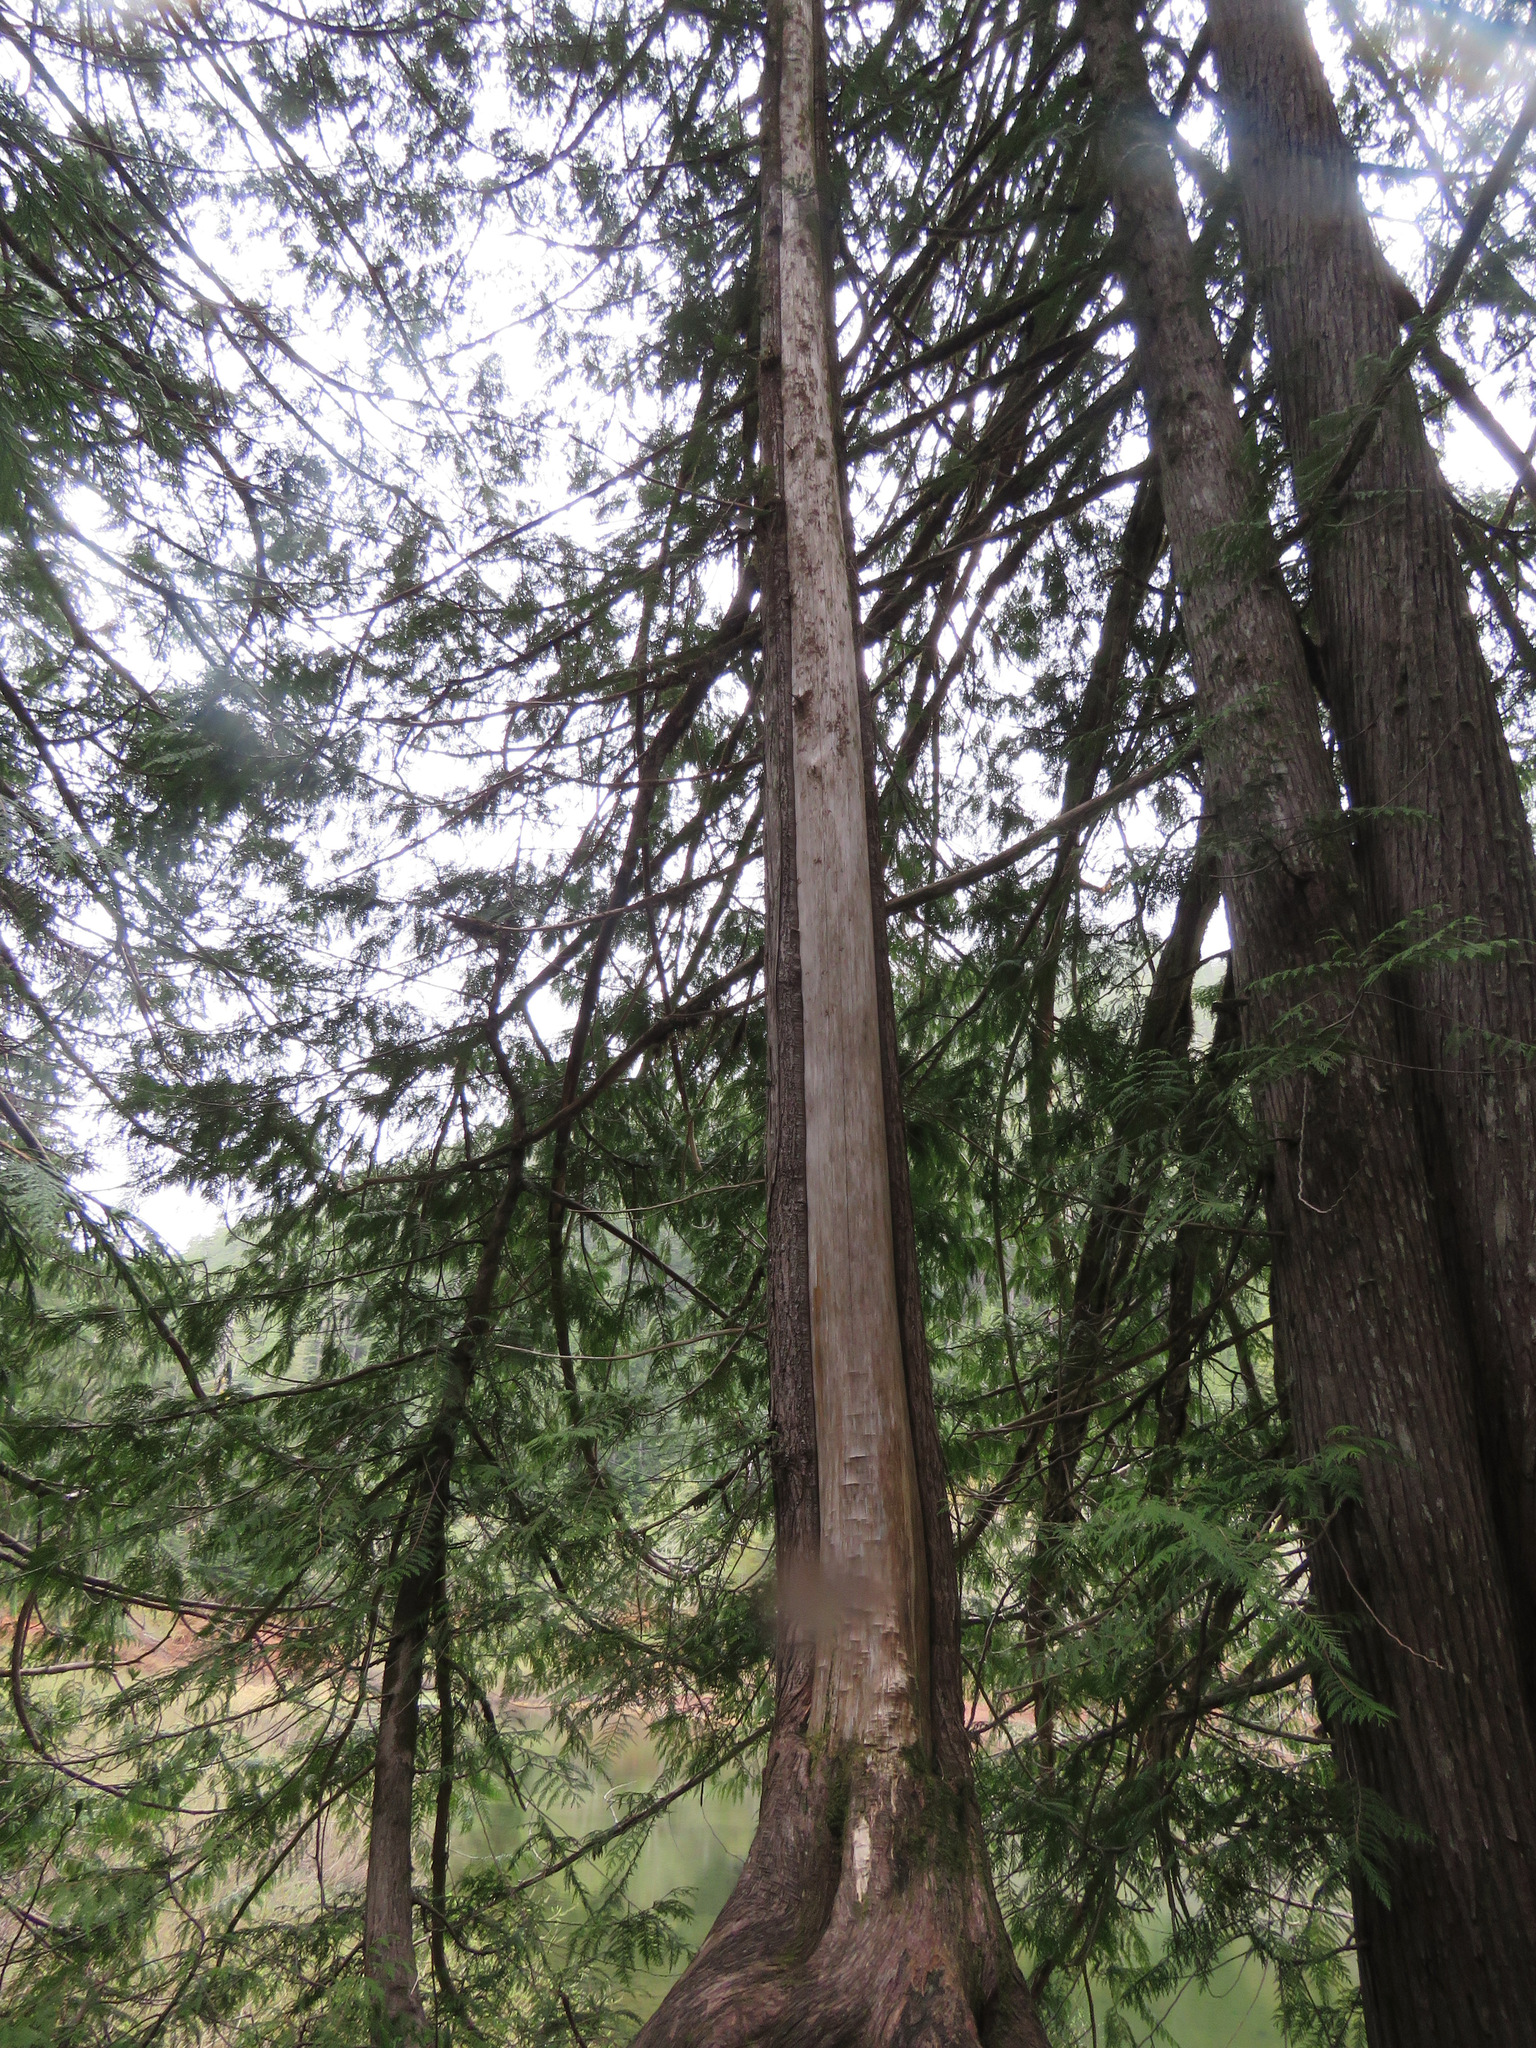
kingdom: Plantae
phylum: Tracheophyta
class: Pinopsida
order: Pinales
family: Cupressaceae
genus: Thuja
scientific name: Thuja plicata
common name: Western red-cedar
